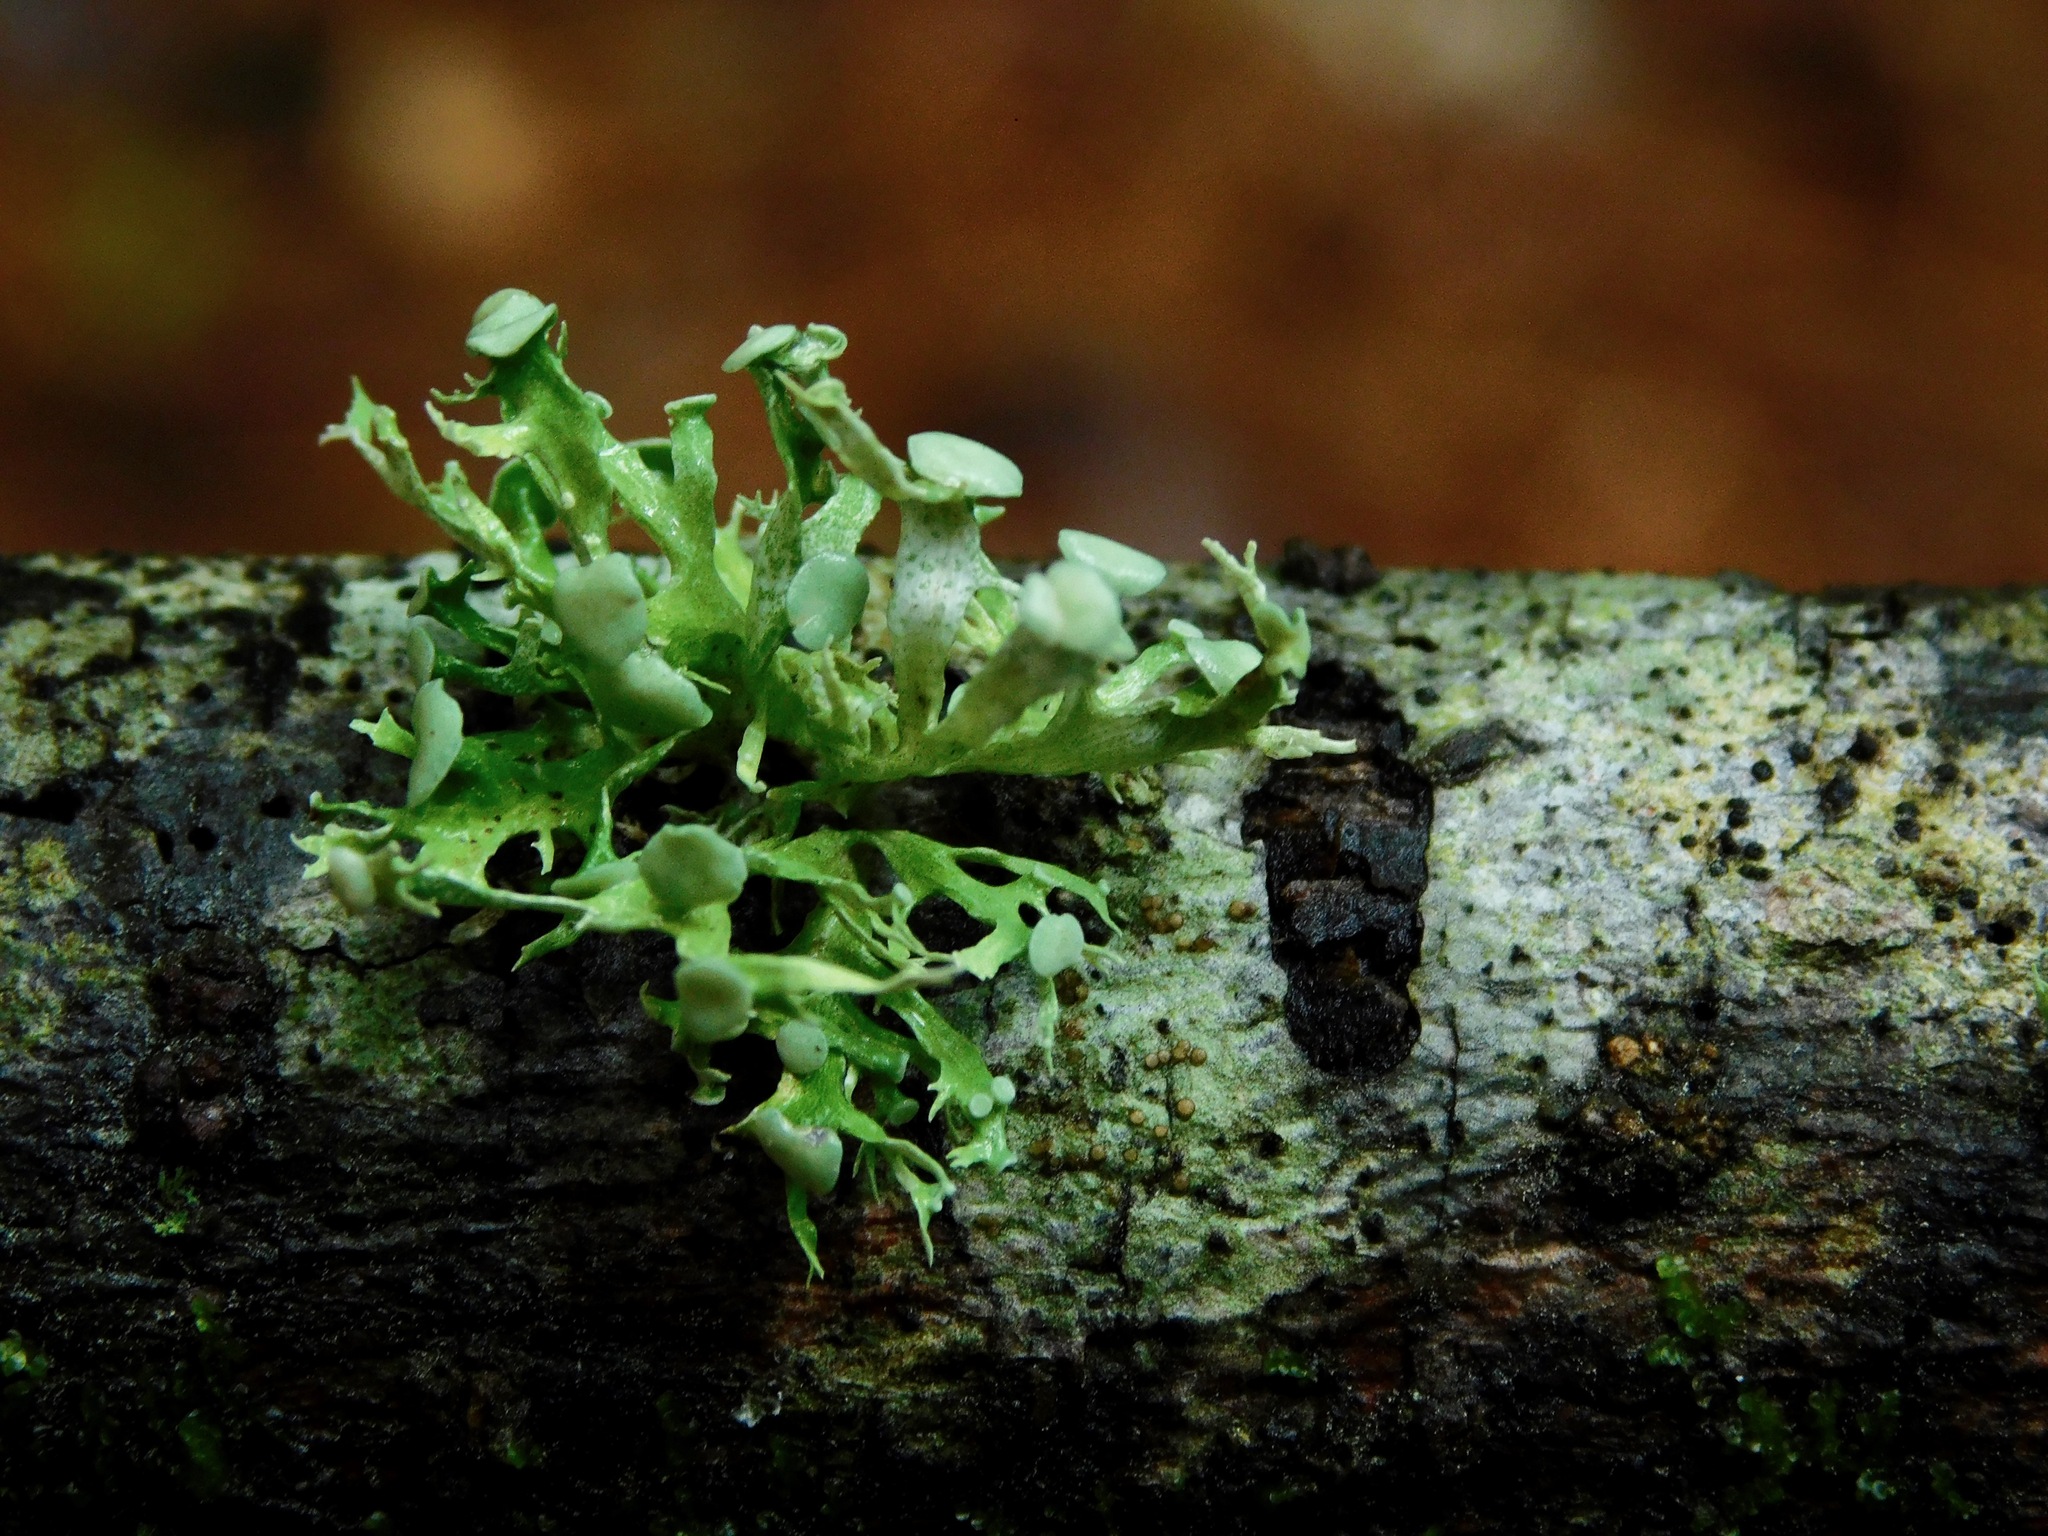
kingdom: Fungi
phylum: Ascomycota
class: Lecanoromycetes
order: Lecanorales
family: Ramalinaceae
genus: Ramalina
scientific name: Ramalina americana
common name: Sinewed bush lichen
